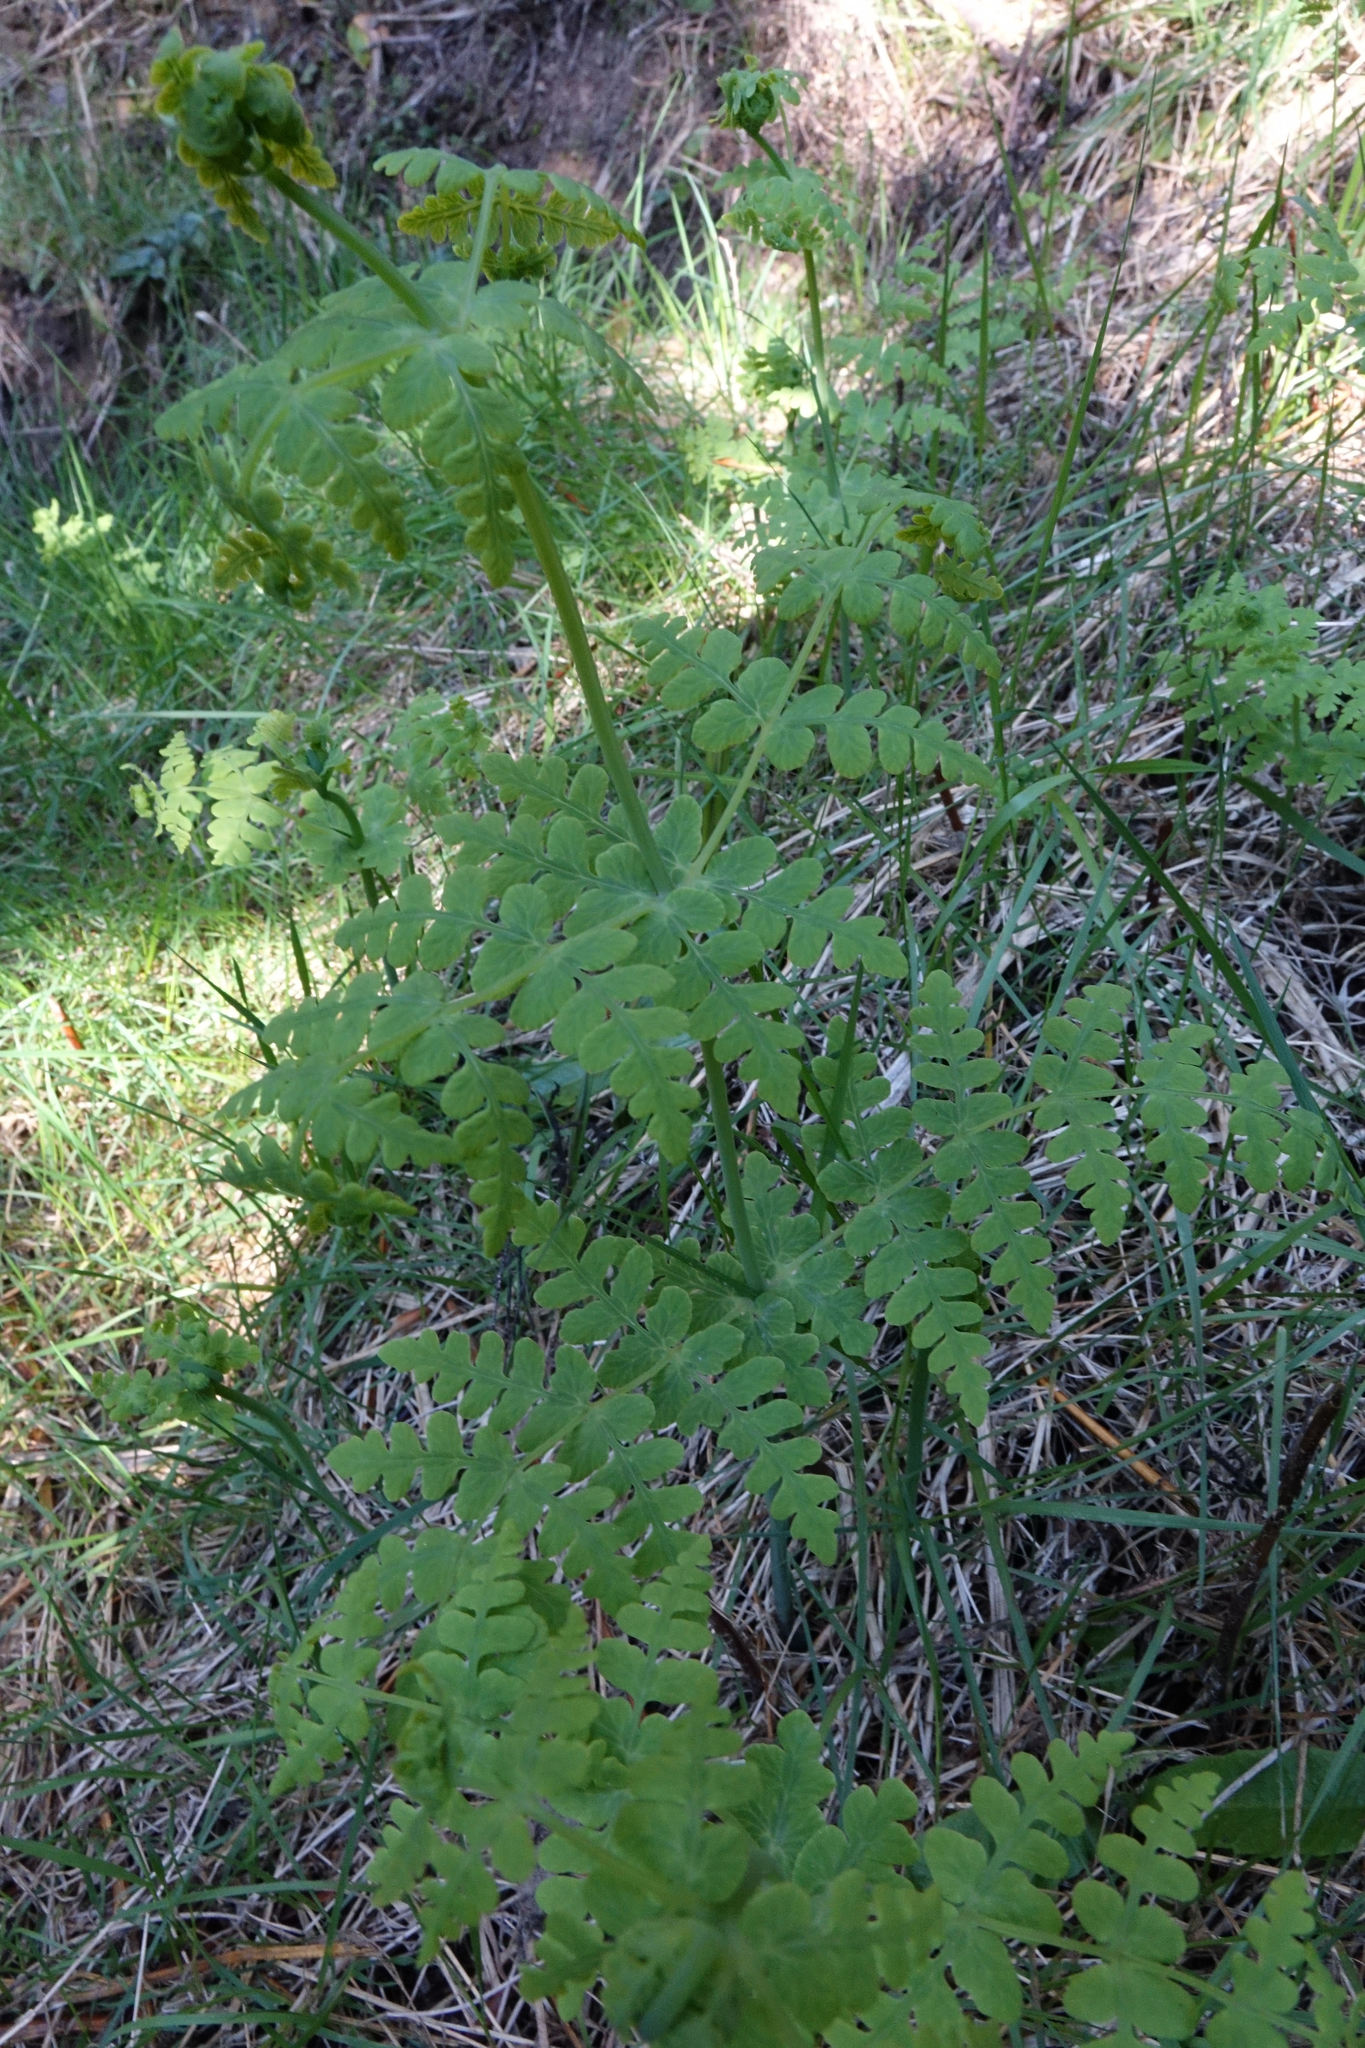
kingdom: Plantae
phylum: Tracheophyta
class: Polypodiopsida
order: Polypodiales
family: Dennstaedtiaceae
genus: Histiopteris
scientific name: Histiopteris incisa
